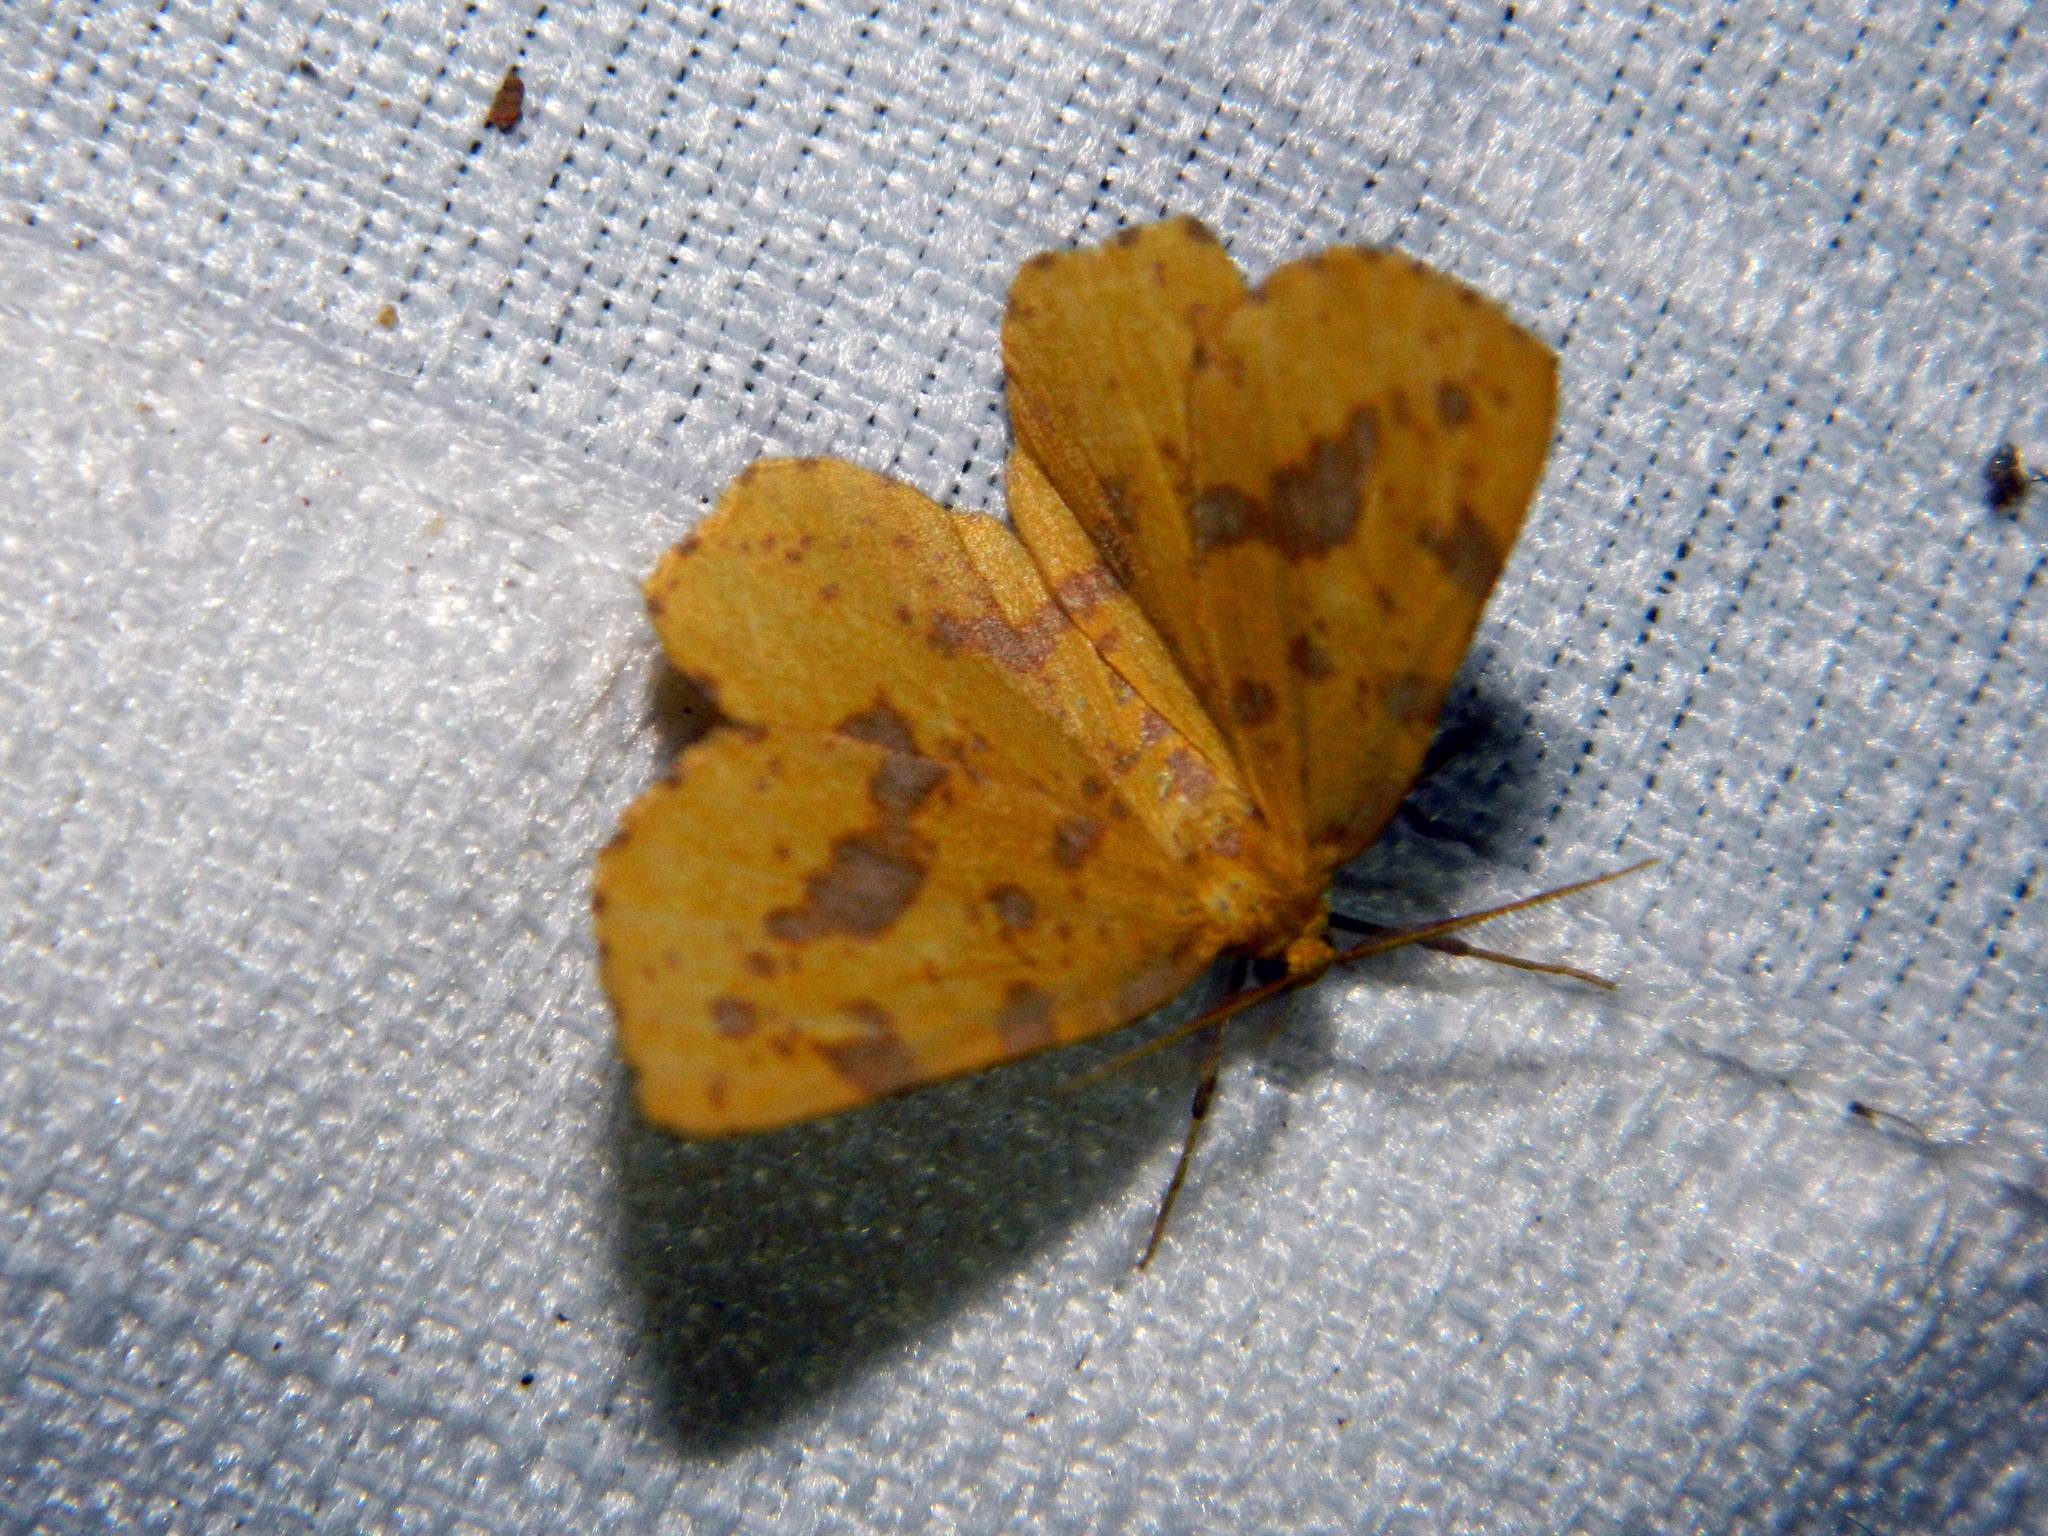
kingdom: Animalia
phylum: Arthropoda
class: Insecta
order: Lepidoptera
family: Geometridae
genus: Xanthotype
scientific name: Xanthotype
